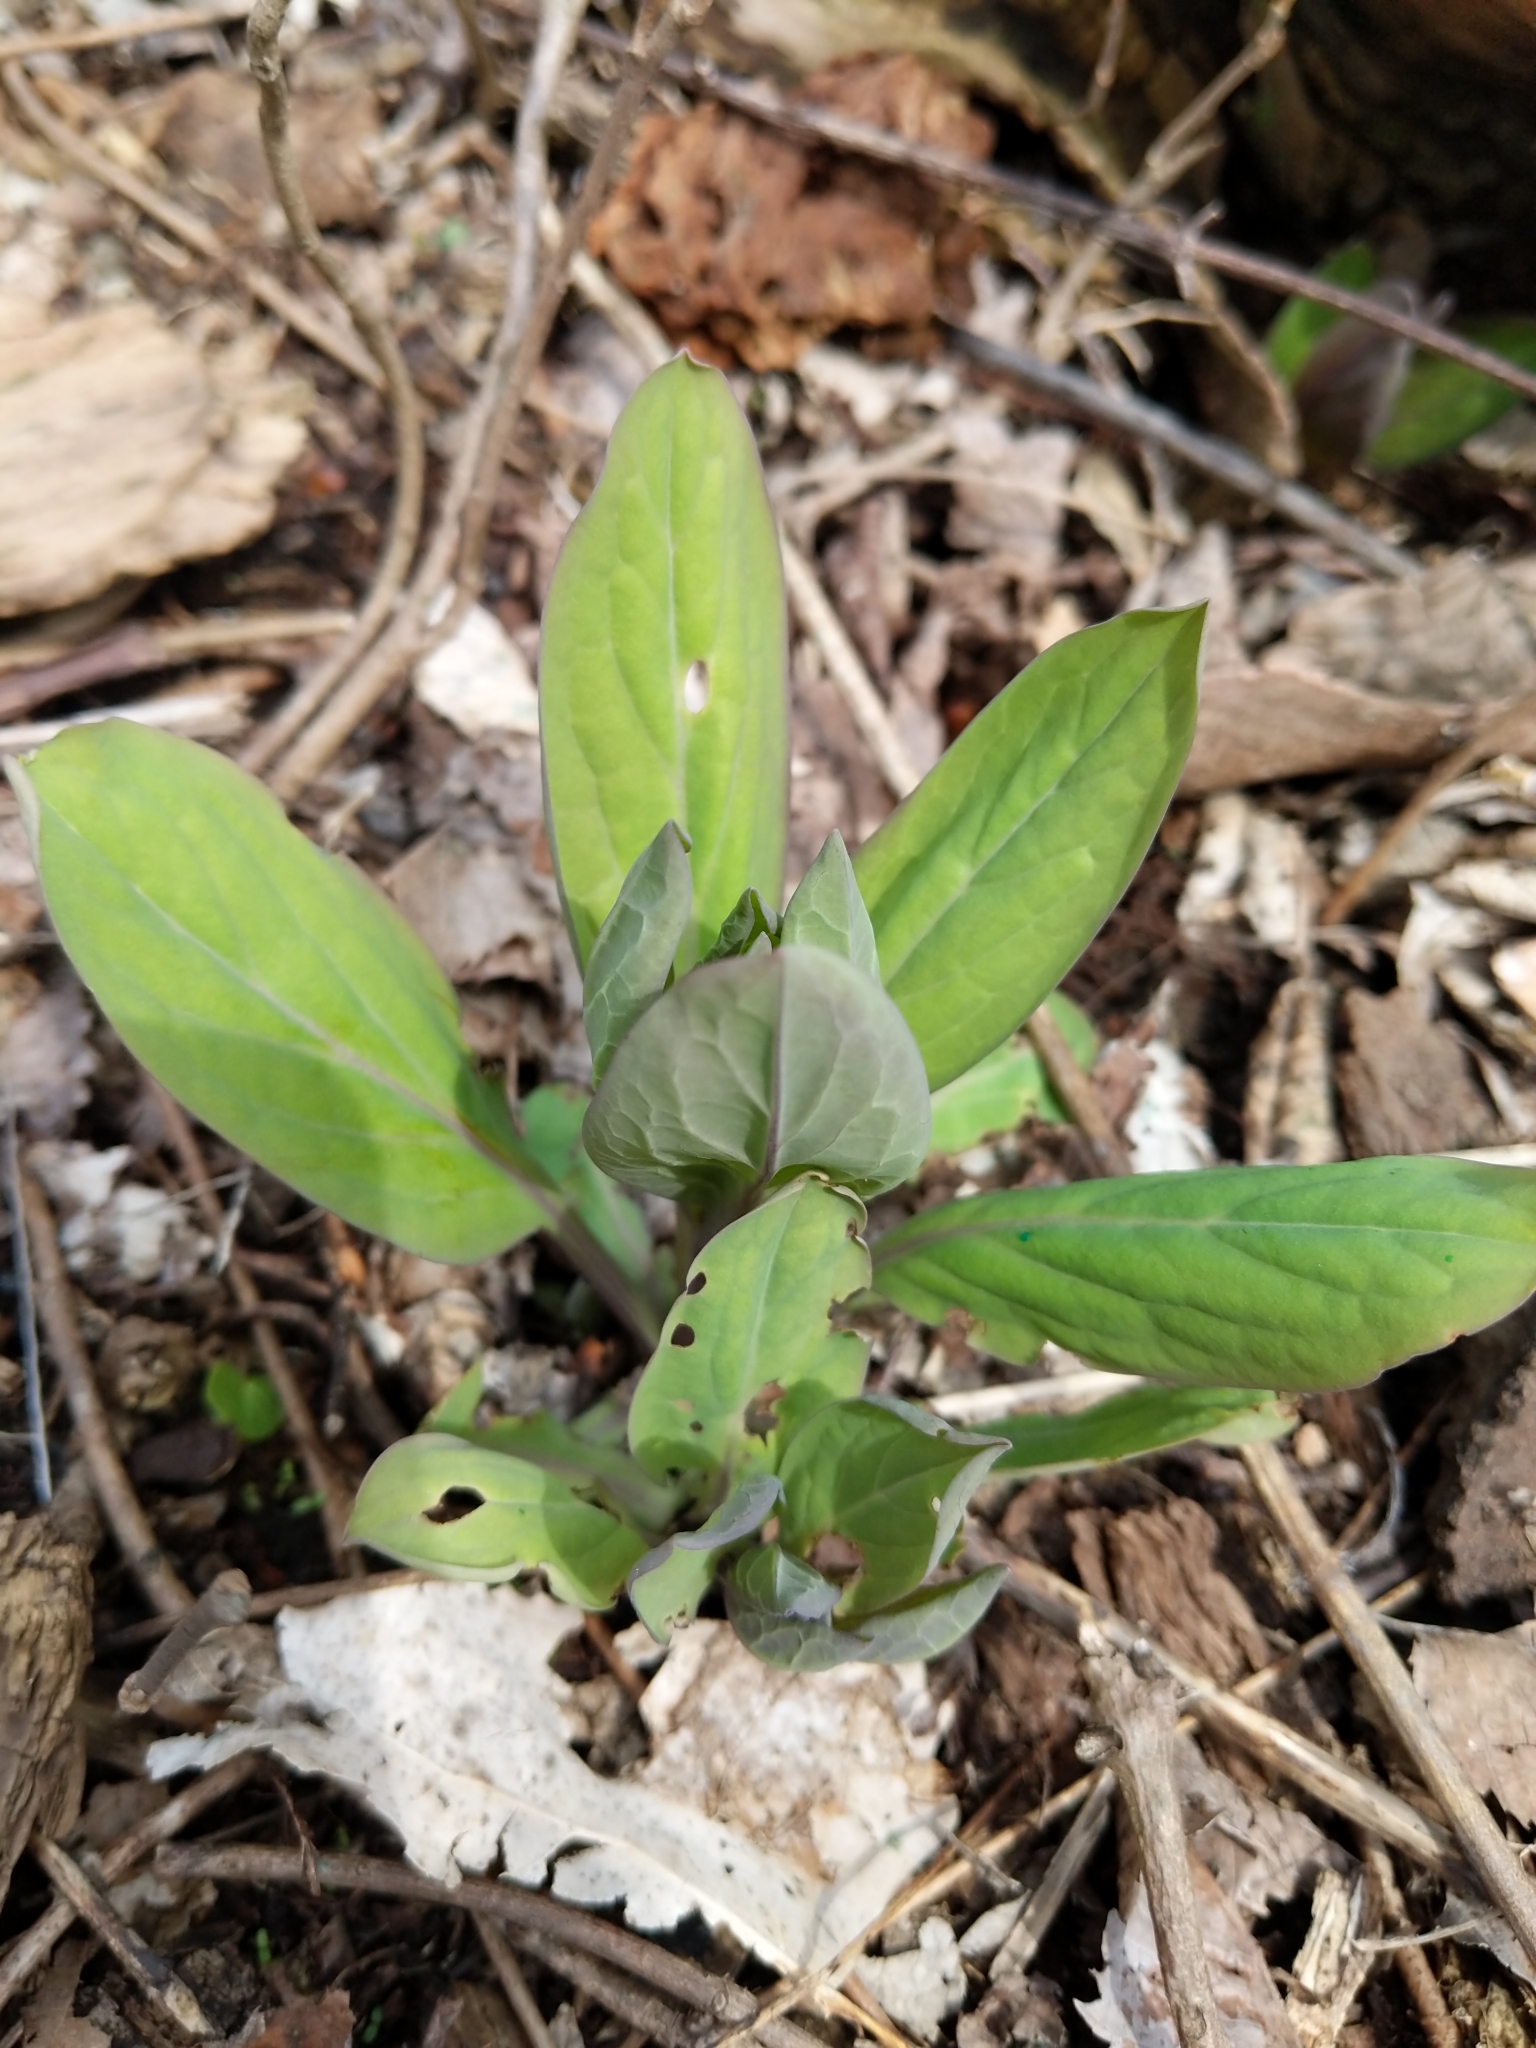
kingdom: Plantae
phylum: Tracheophyta
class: Magnoliopsida
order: Boraginales
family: Boraginaceae
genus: Mertensia
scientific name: Mertensia virginica
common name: Virginia bluebells
